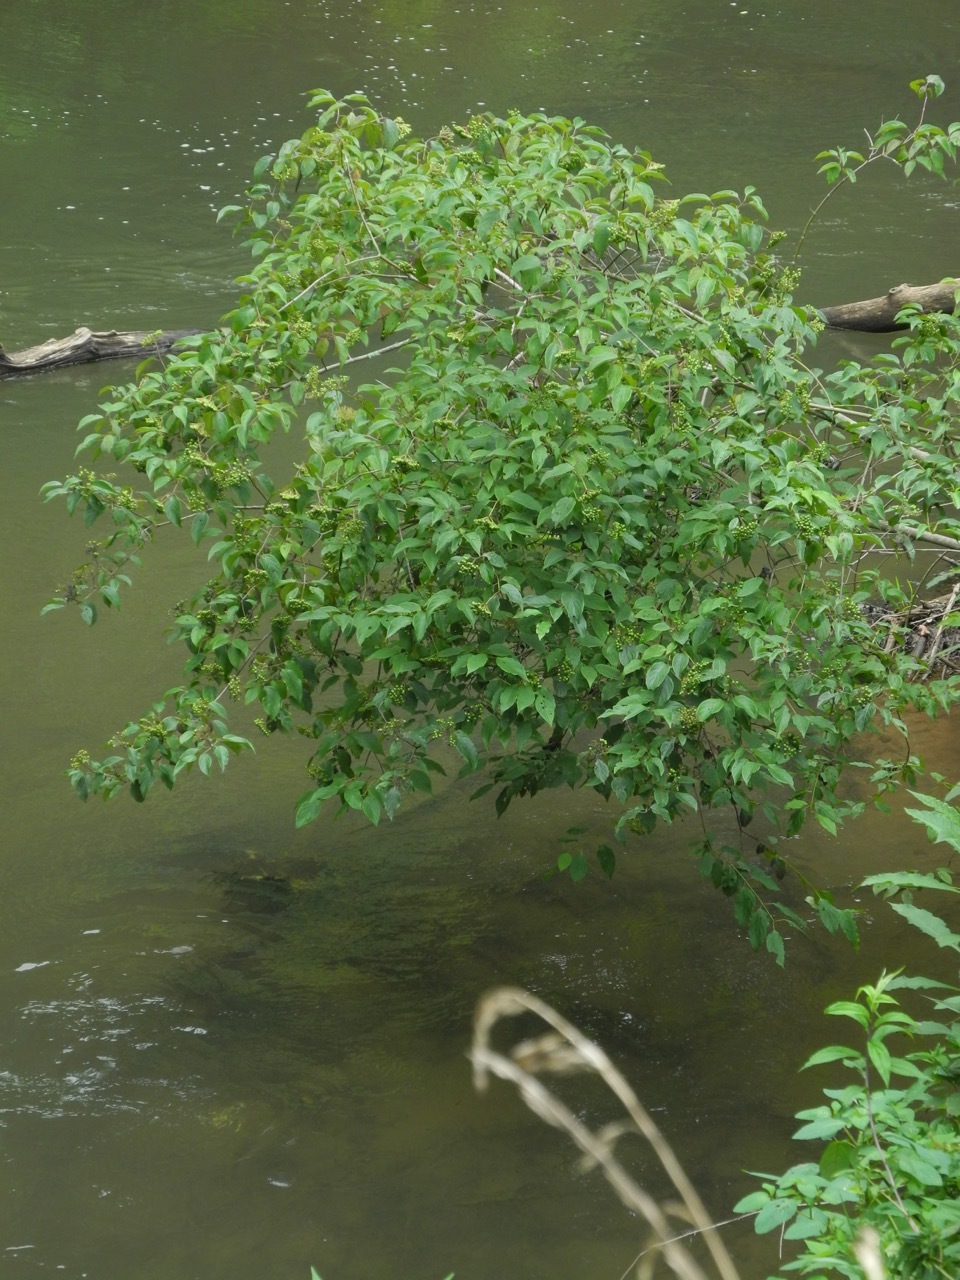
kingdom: Plantae
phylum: Tracheophyta
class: Magnoliopsida
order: Cornales
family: Cornaceae
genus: Cornus
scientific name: Cornus amomum
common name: Silky dogwood
